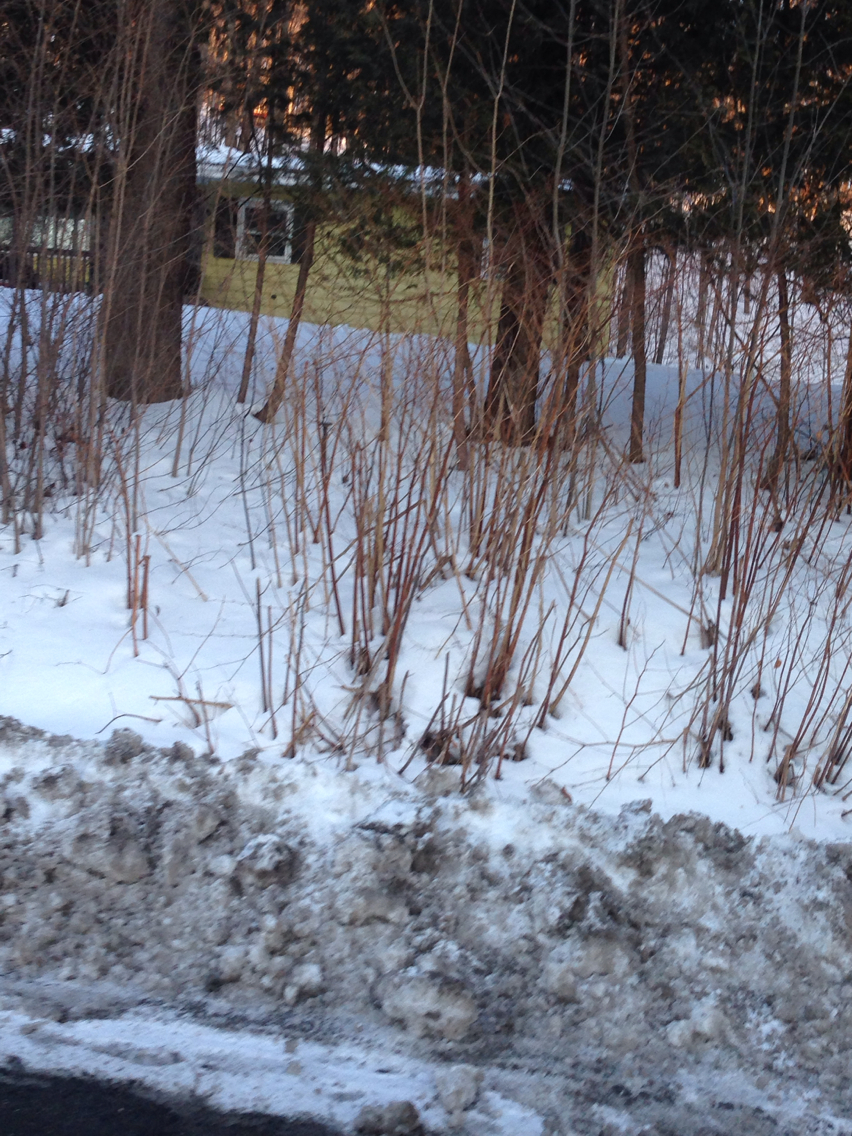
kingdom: Plantae
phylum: Tracheophyta
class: Magnoliopsida
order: Caryophyllales
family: Polygonaceae
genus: Reynoutria
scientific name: Reynoutria japonica
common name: Japanese knotweed
